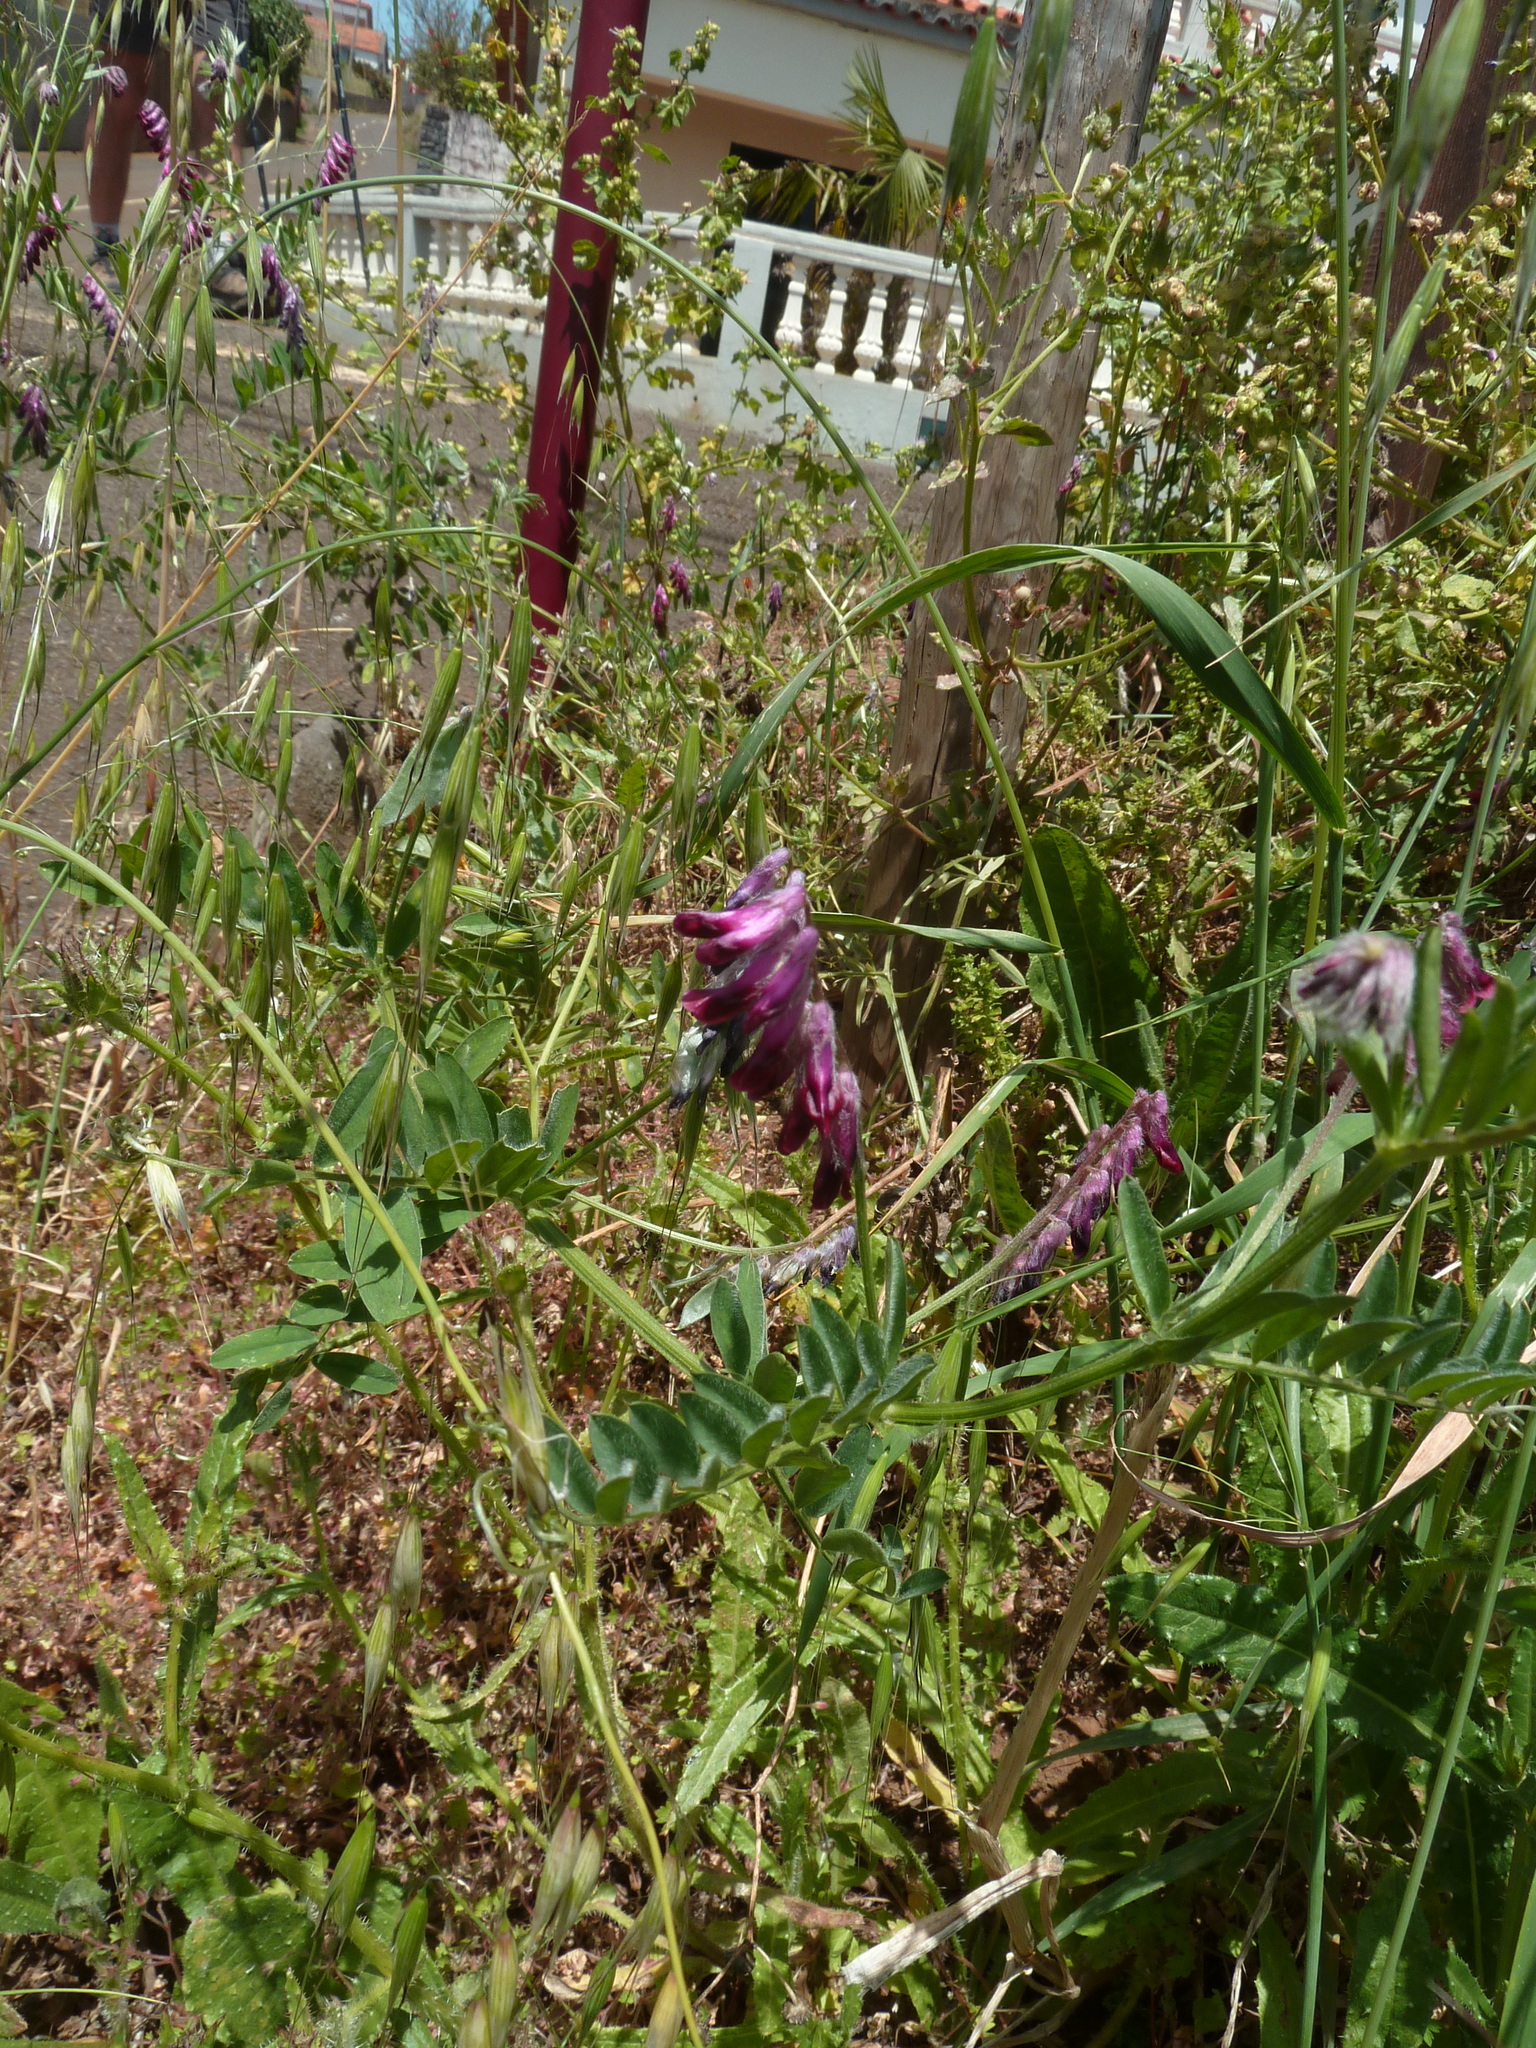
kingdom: Plantae
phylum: Tracheophyta
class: Magnoliopsida
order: Fabales
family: Fabaceae
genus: Vicia
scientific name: Vicia benghalensis
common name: Purple vetch
